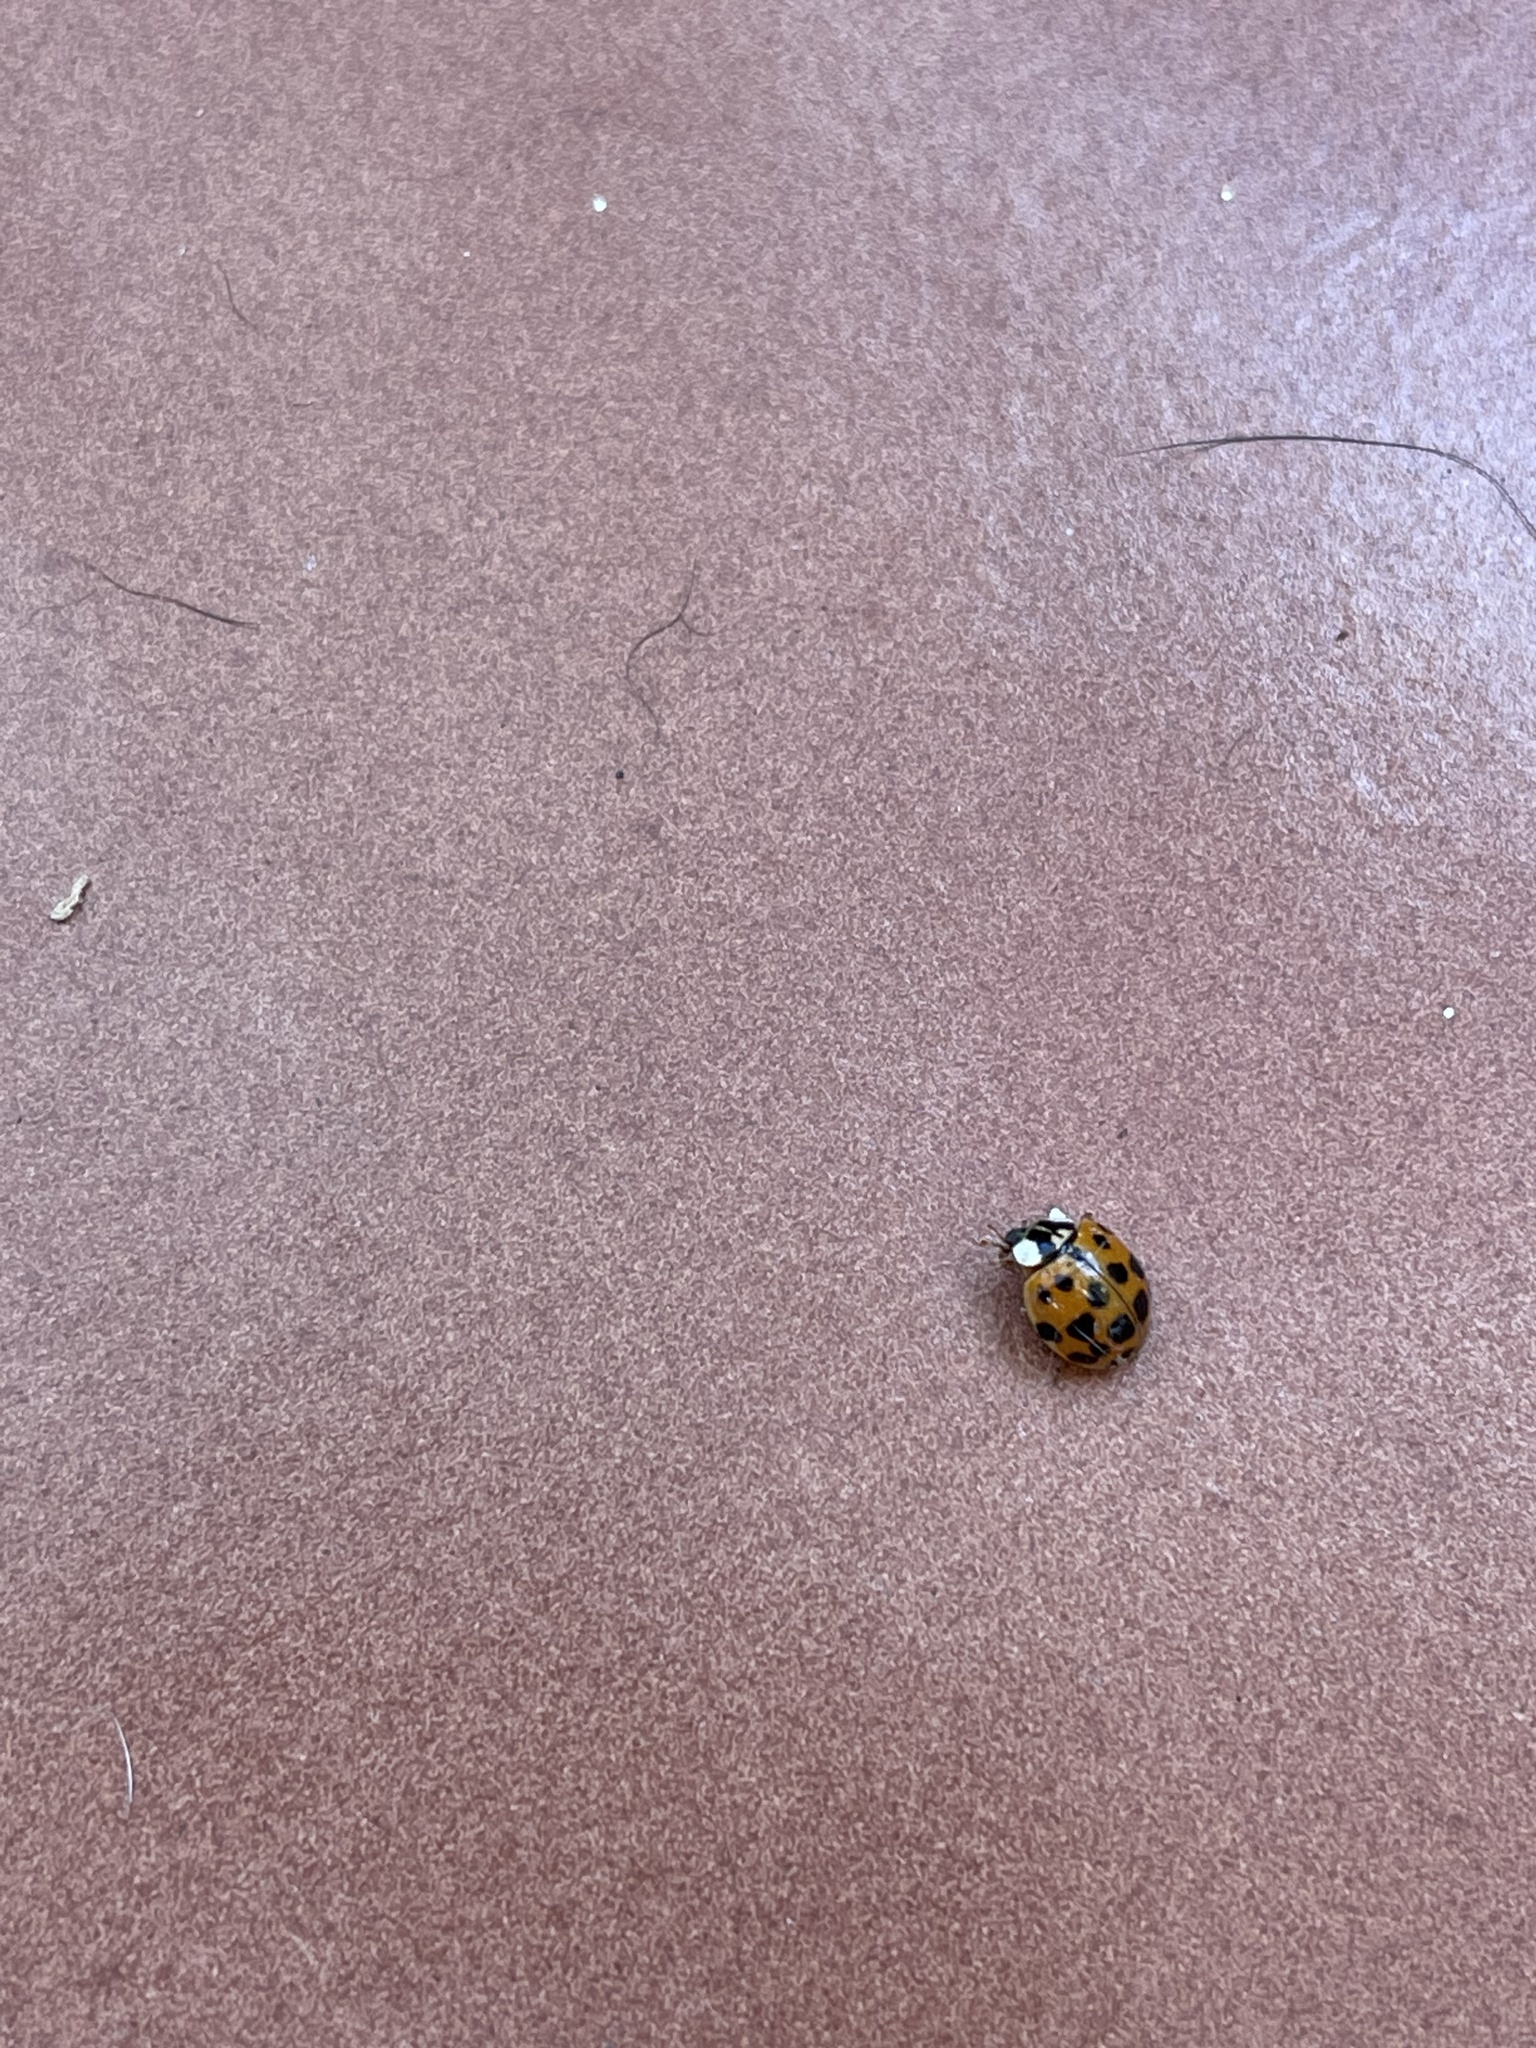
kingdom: Animalia
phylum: Arthropoda
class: Insecta
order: Coleoptera
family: Coccinellidae
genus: Harmonia
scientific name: Harmonia axyridis
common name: Harlequin ladybird
